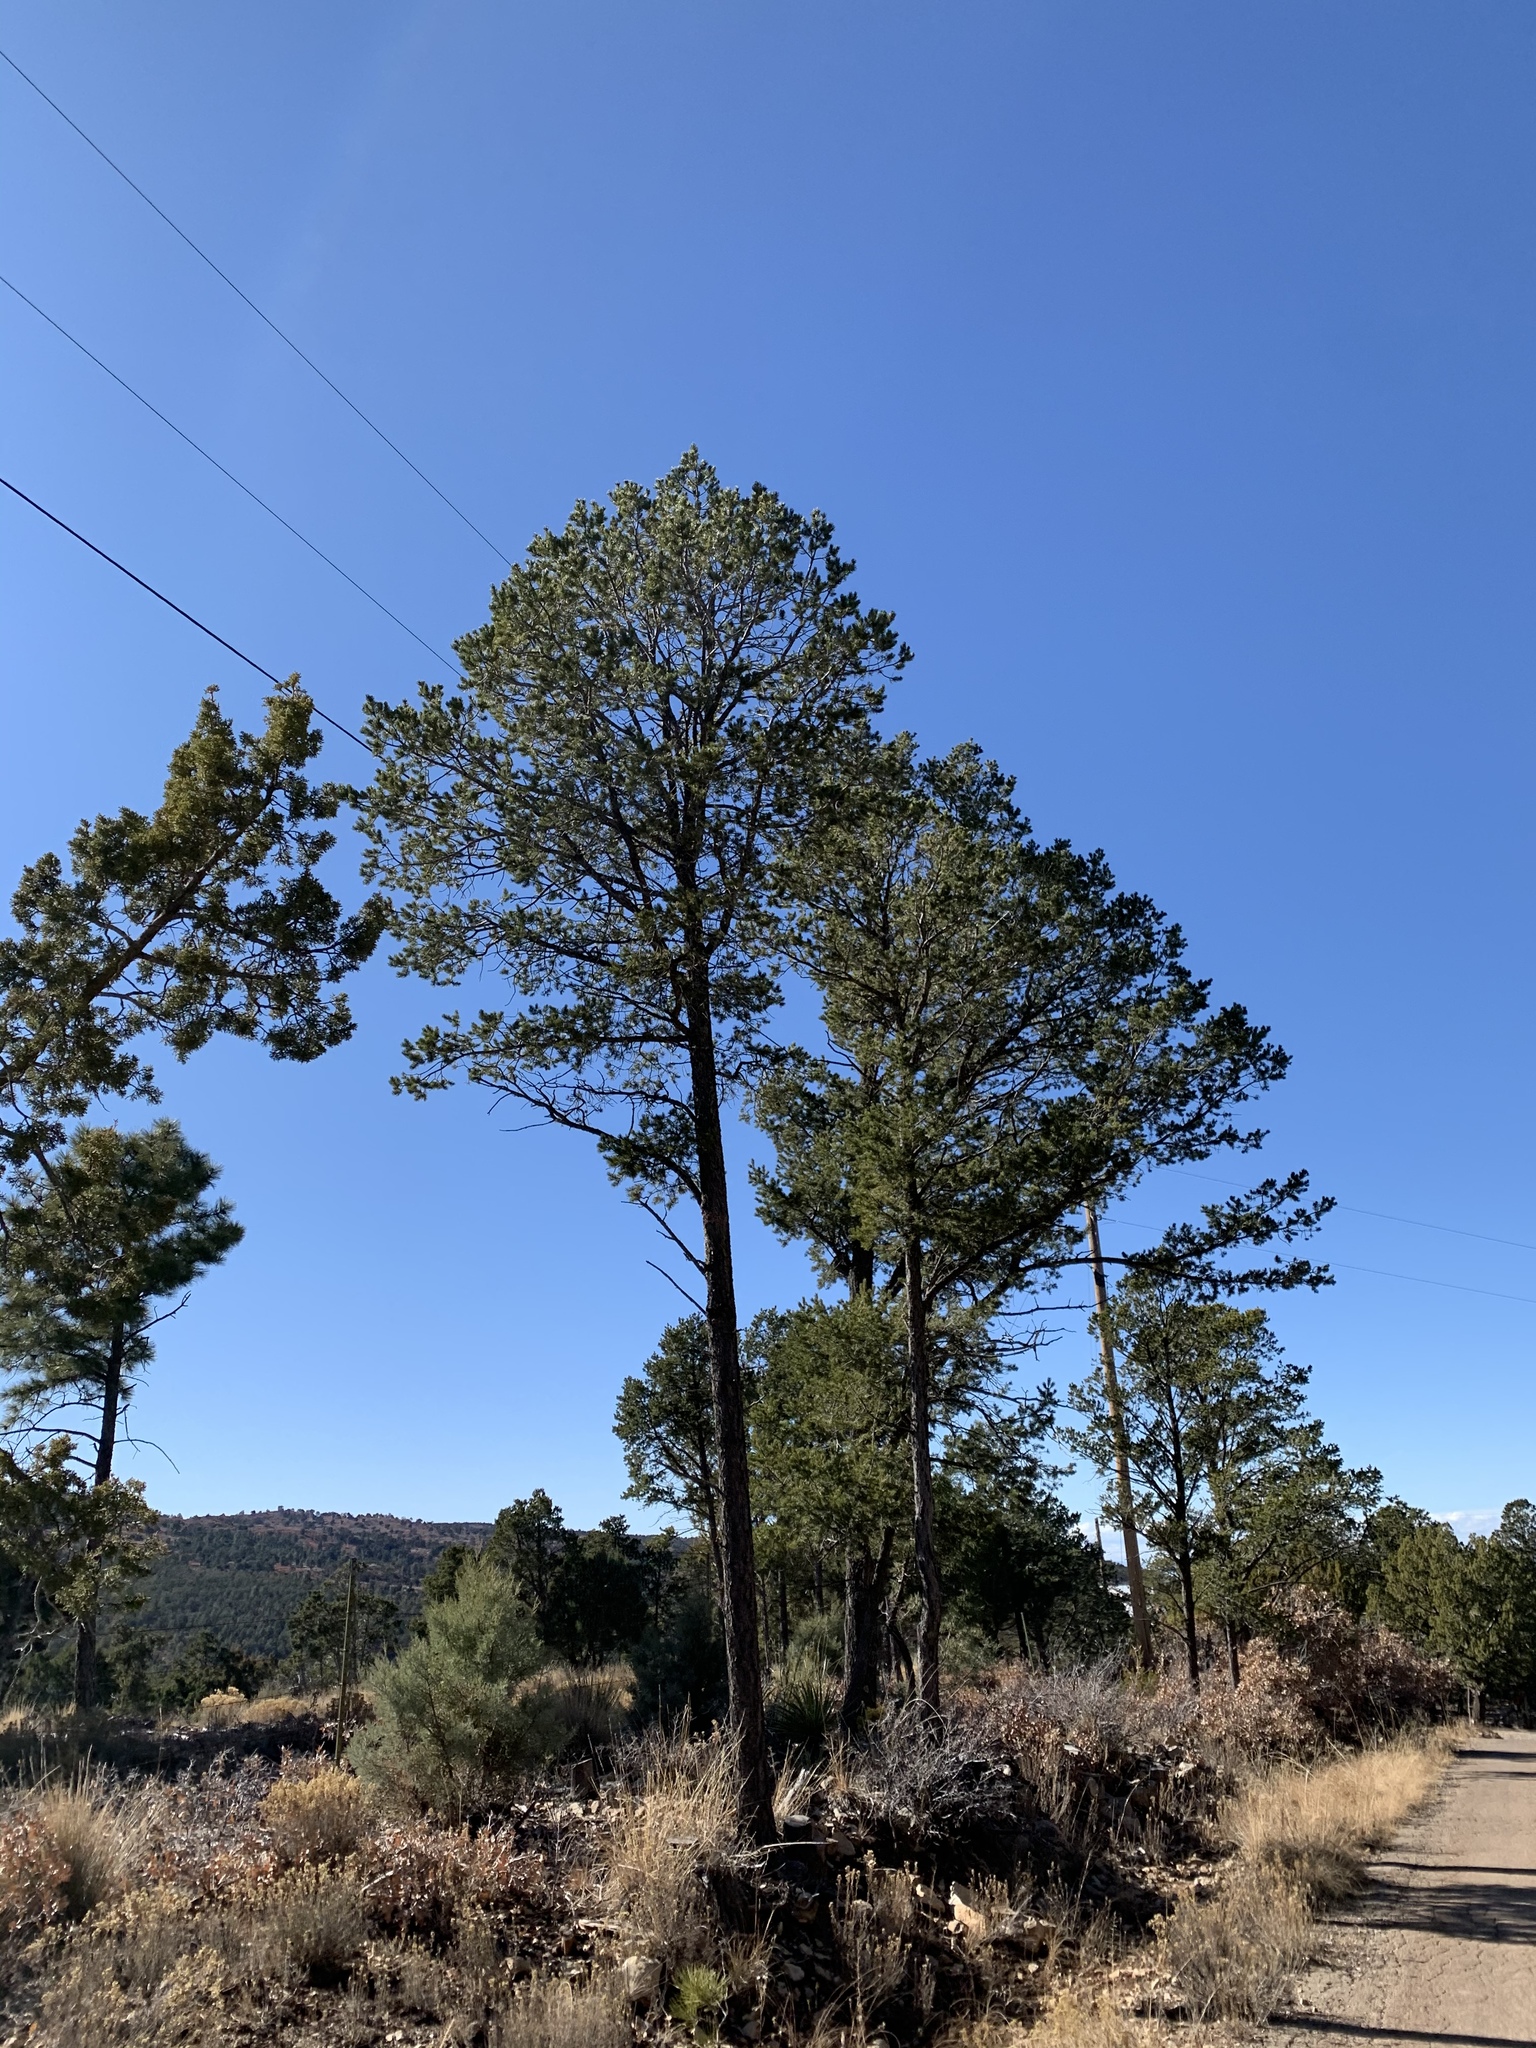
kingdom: Plantae
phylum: Tracheophyta
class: Pinopsida
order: Pinales
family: Pinaceae
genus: Pinus
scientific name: Pinus edulis
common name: Colorado pinyon
